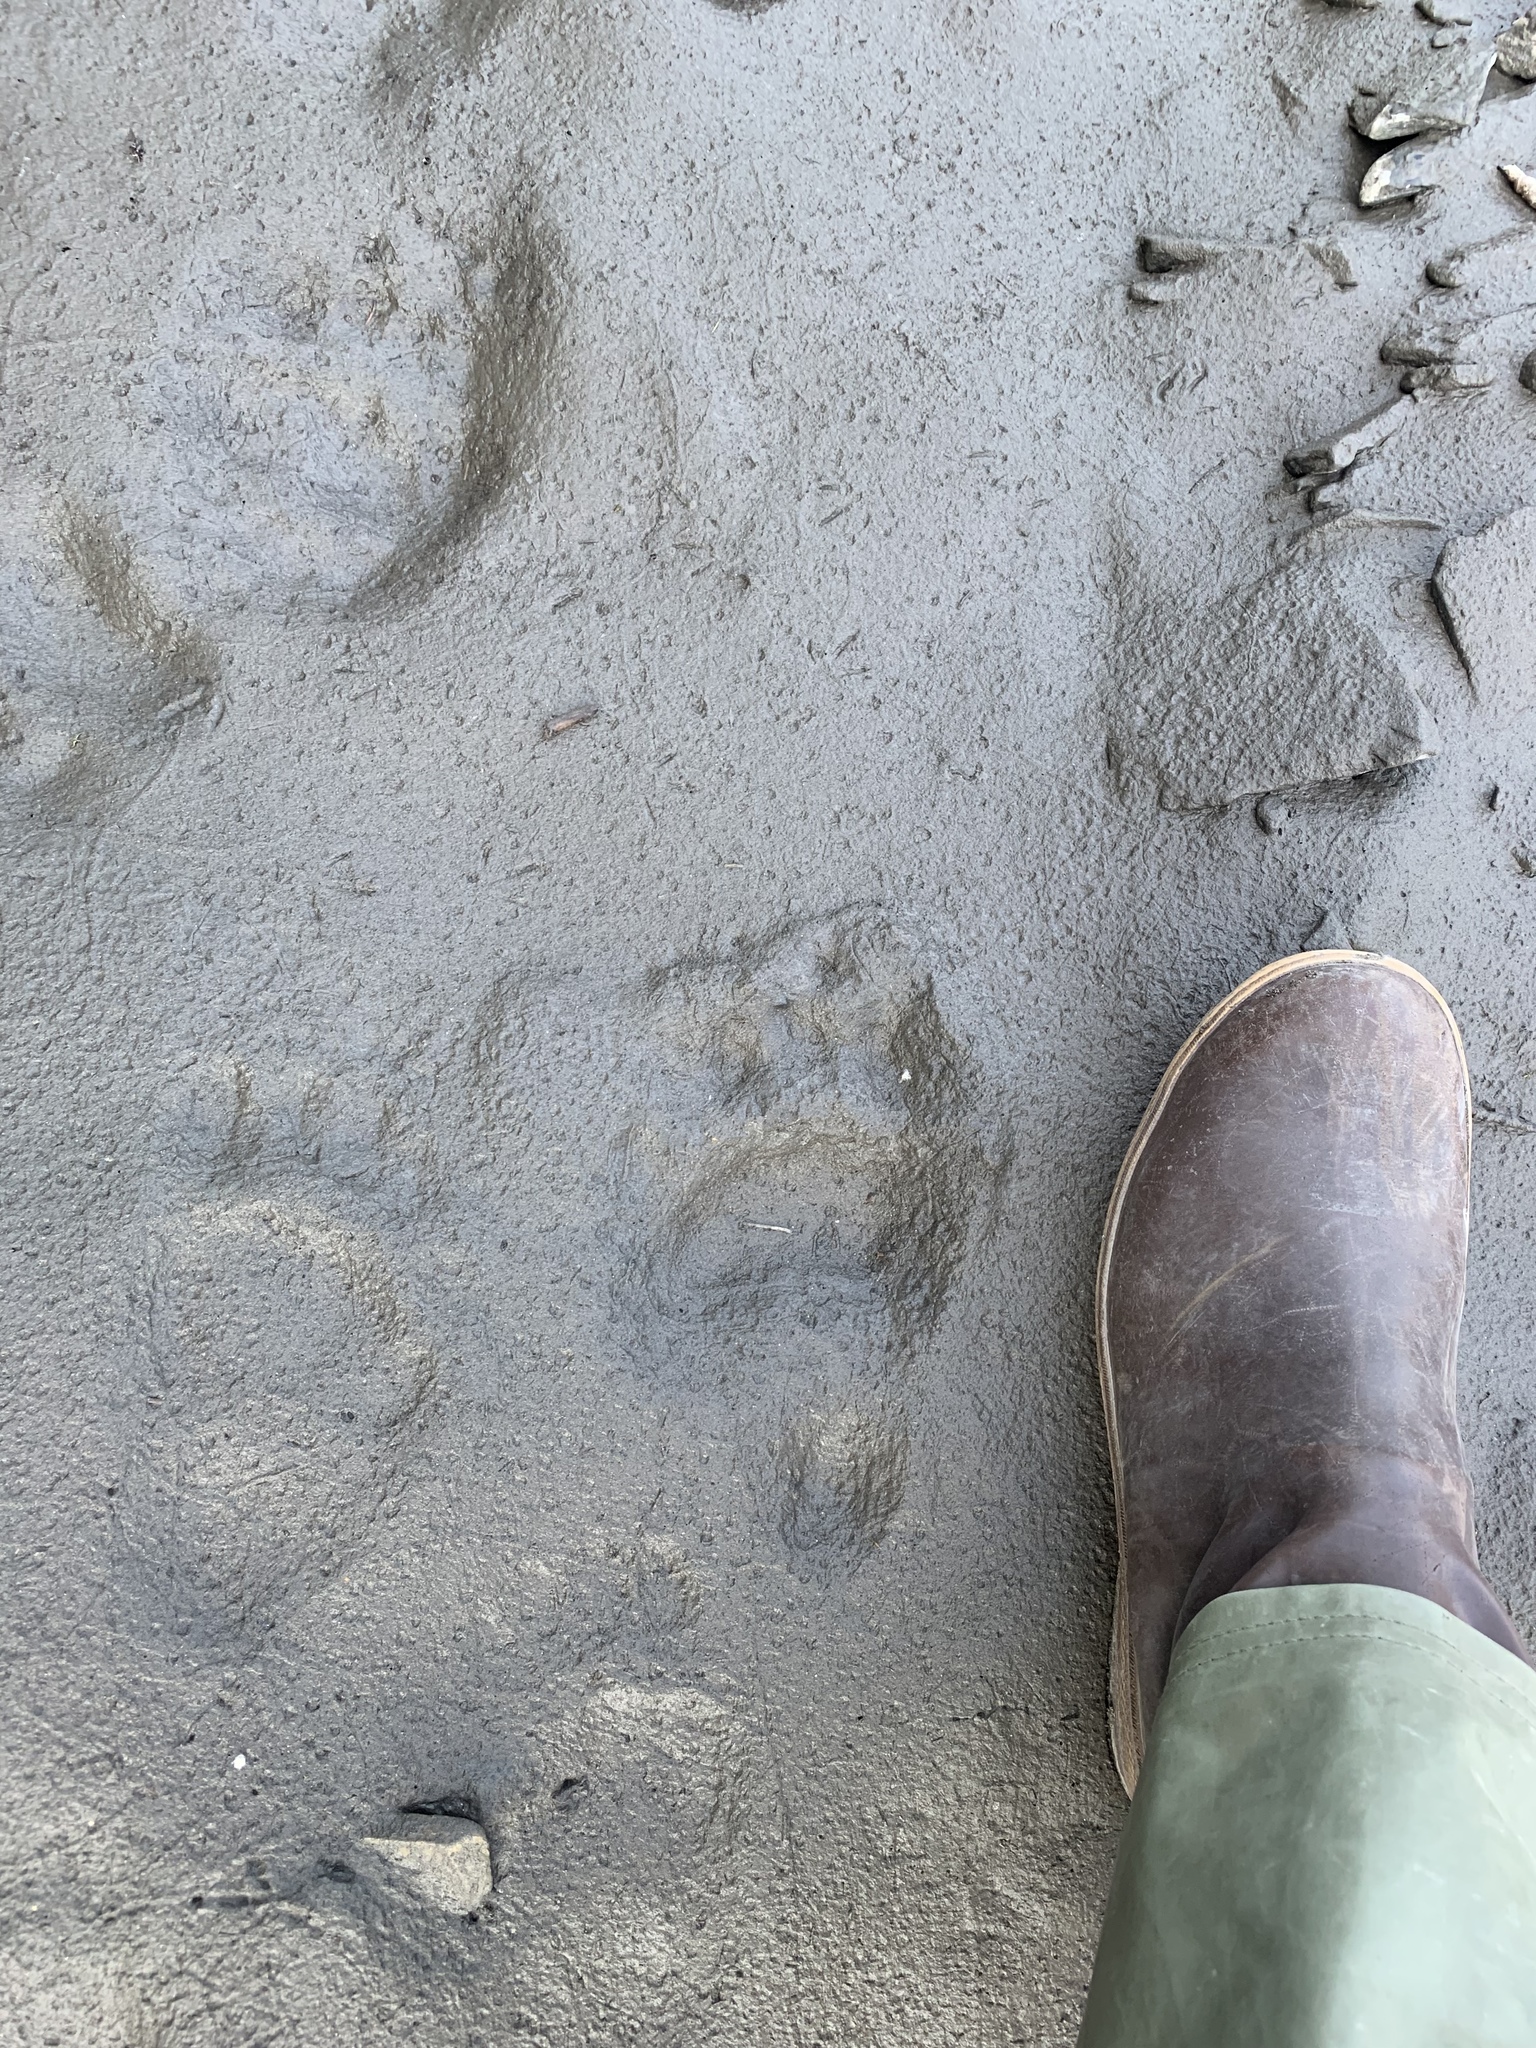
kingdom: Animalia
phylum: Chordata
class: Mammalia
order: Carnivora
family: Ursidae
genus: Ursus
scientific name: Ursus americanus
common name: American black bear
